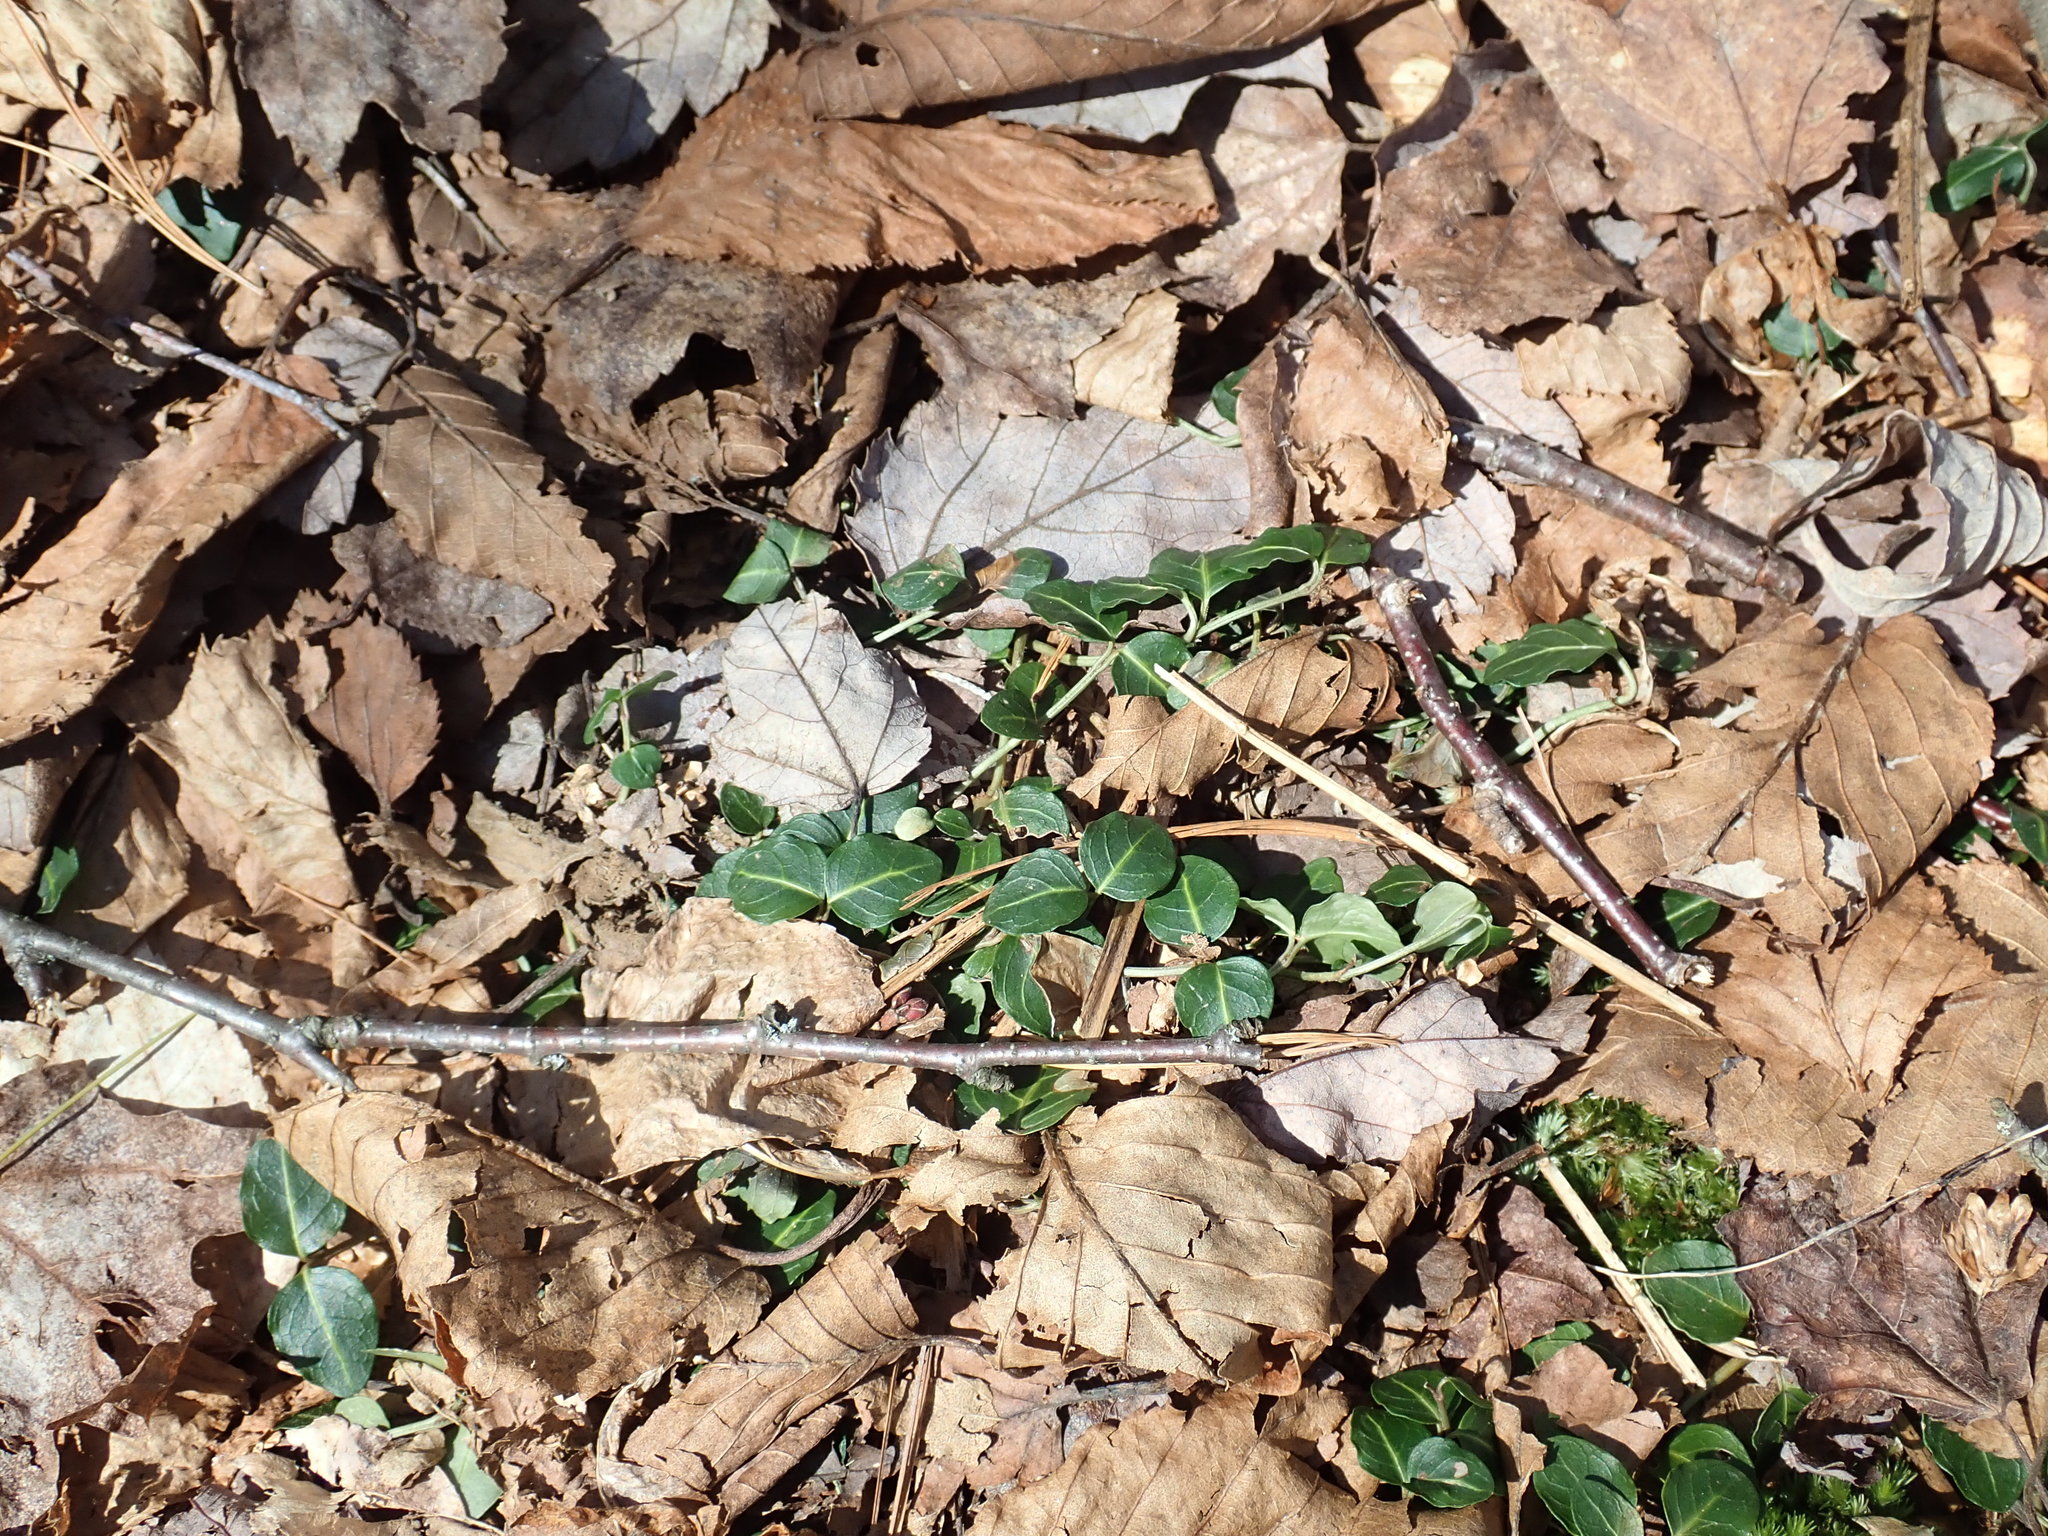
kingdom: Plantae
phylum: Tracheophyta
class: Magnoliopsida
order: Gentianales
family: Rubiaceae
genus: Mitchella
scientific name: Mitchella repens
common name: Partridge-berry
